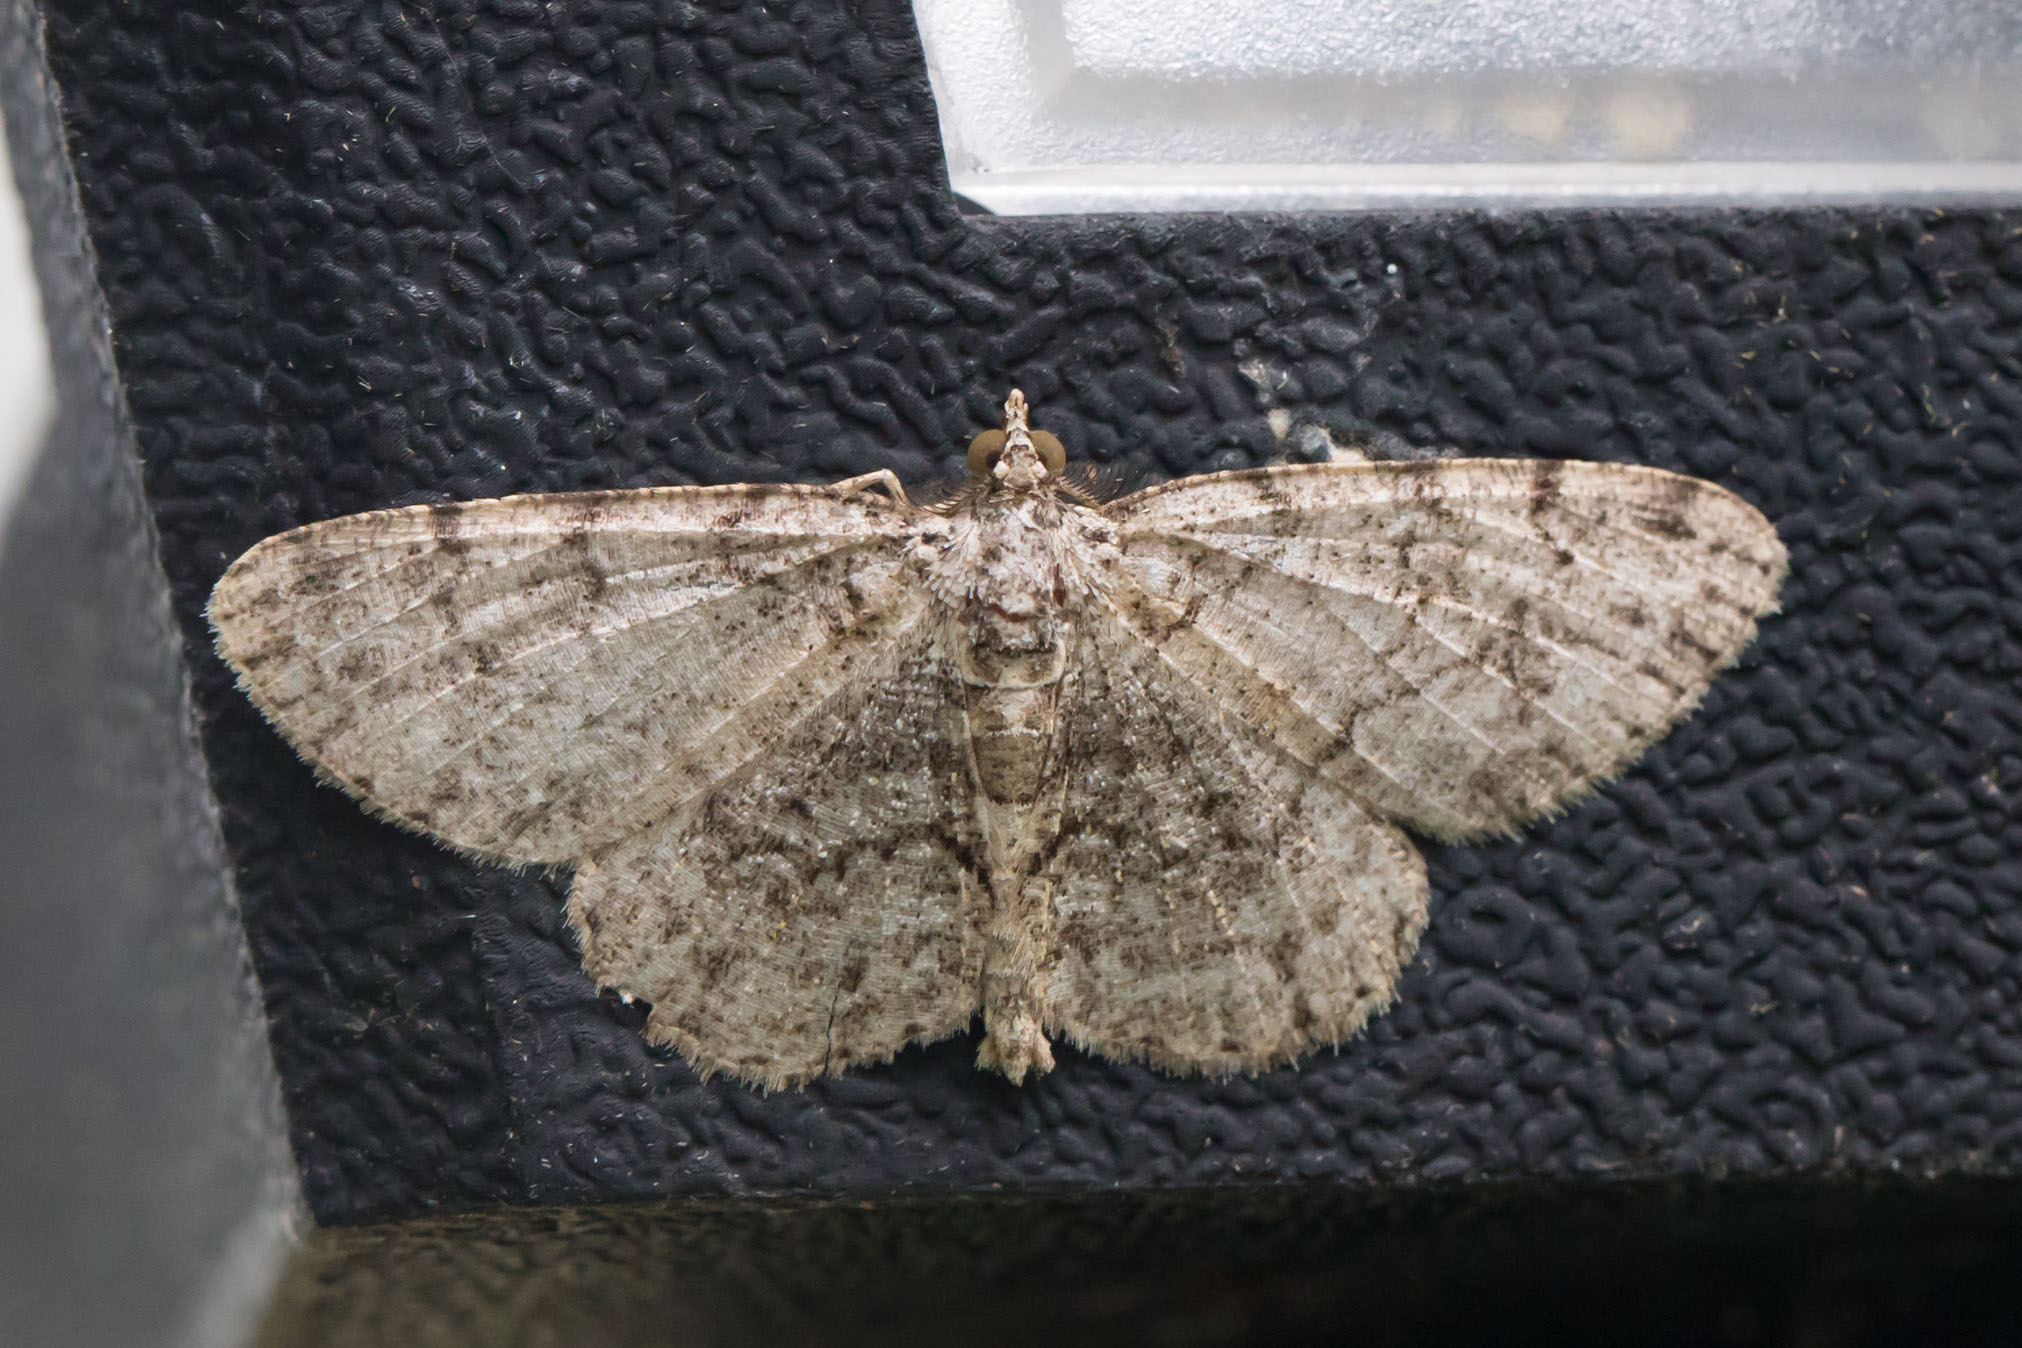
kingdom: Animalia
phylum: Arthropoda
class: Insecta
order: Lepidoptera
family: Geometridae
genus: Protoboarmia
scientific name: Protoboarmia porcelaria
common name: Porcelain gray
